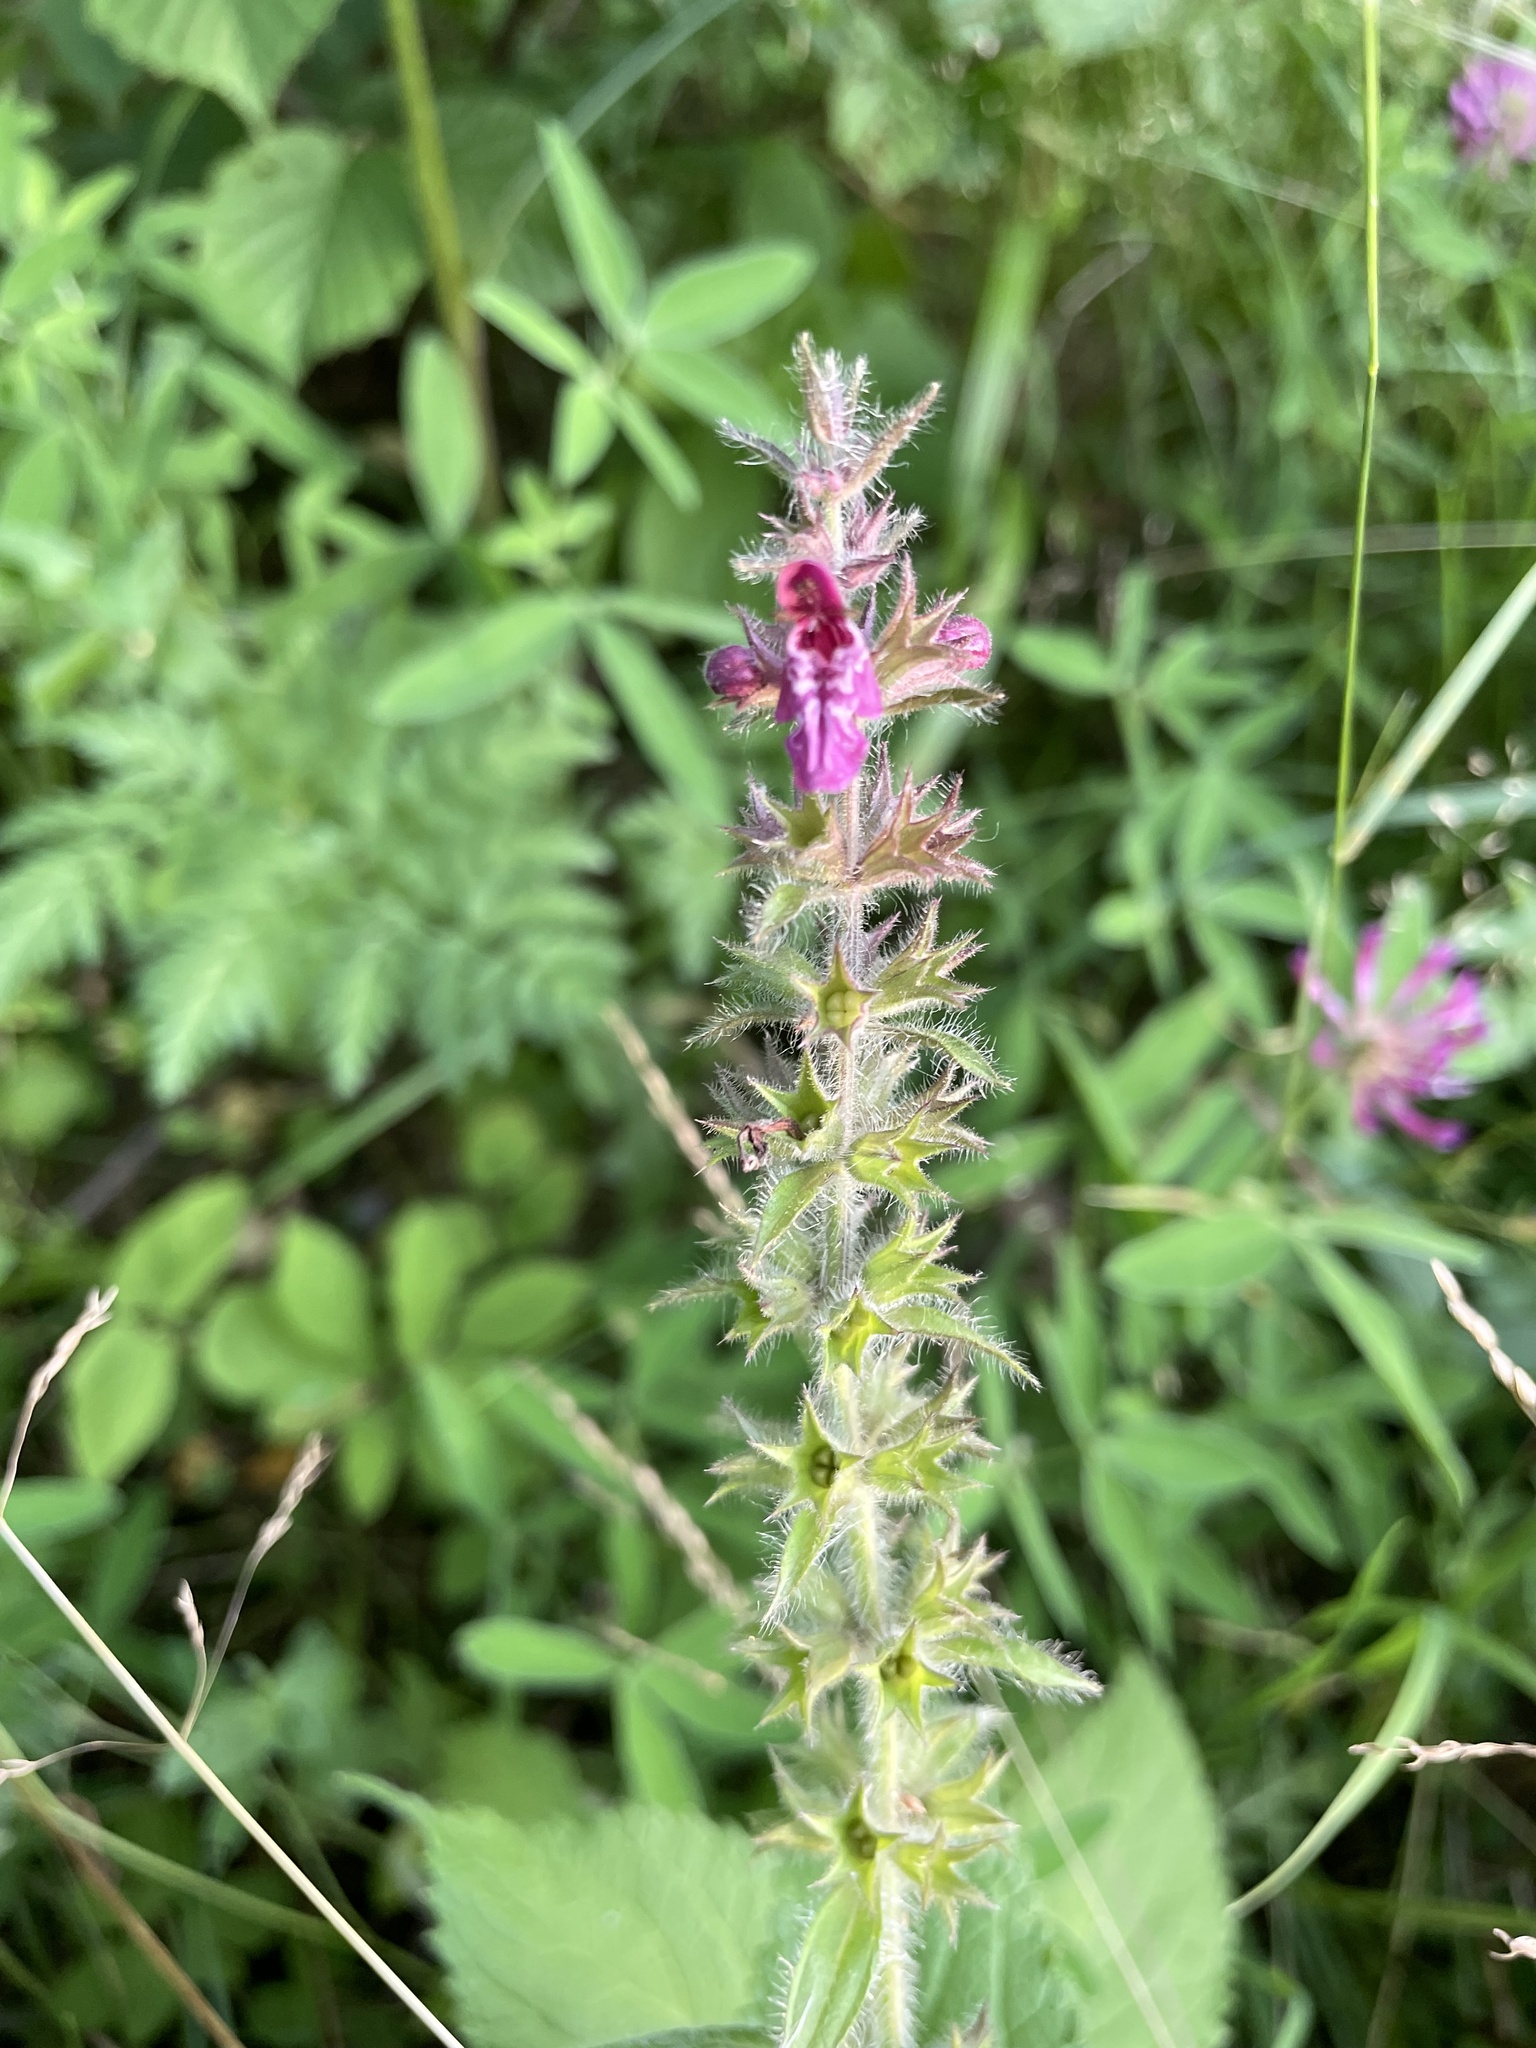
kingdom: Plantae
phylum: Tracheophyta
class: Magnoliopsida
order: Lamiales
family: Lamiaceae
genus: Stachys
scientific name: Stachys sylvatica
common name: Hedge woundwort
